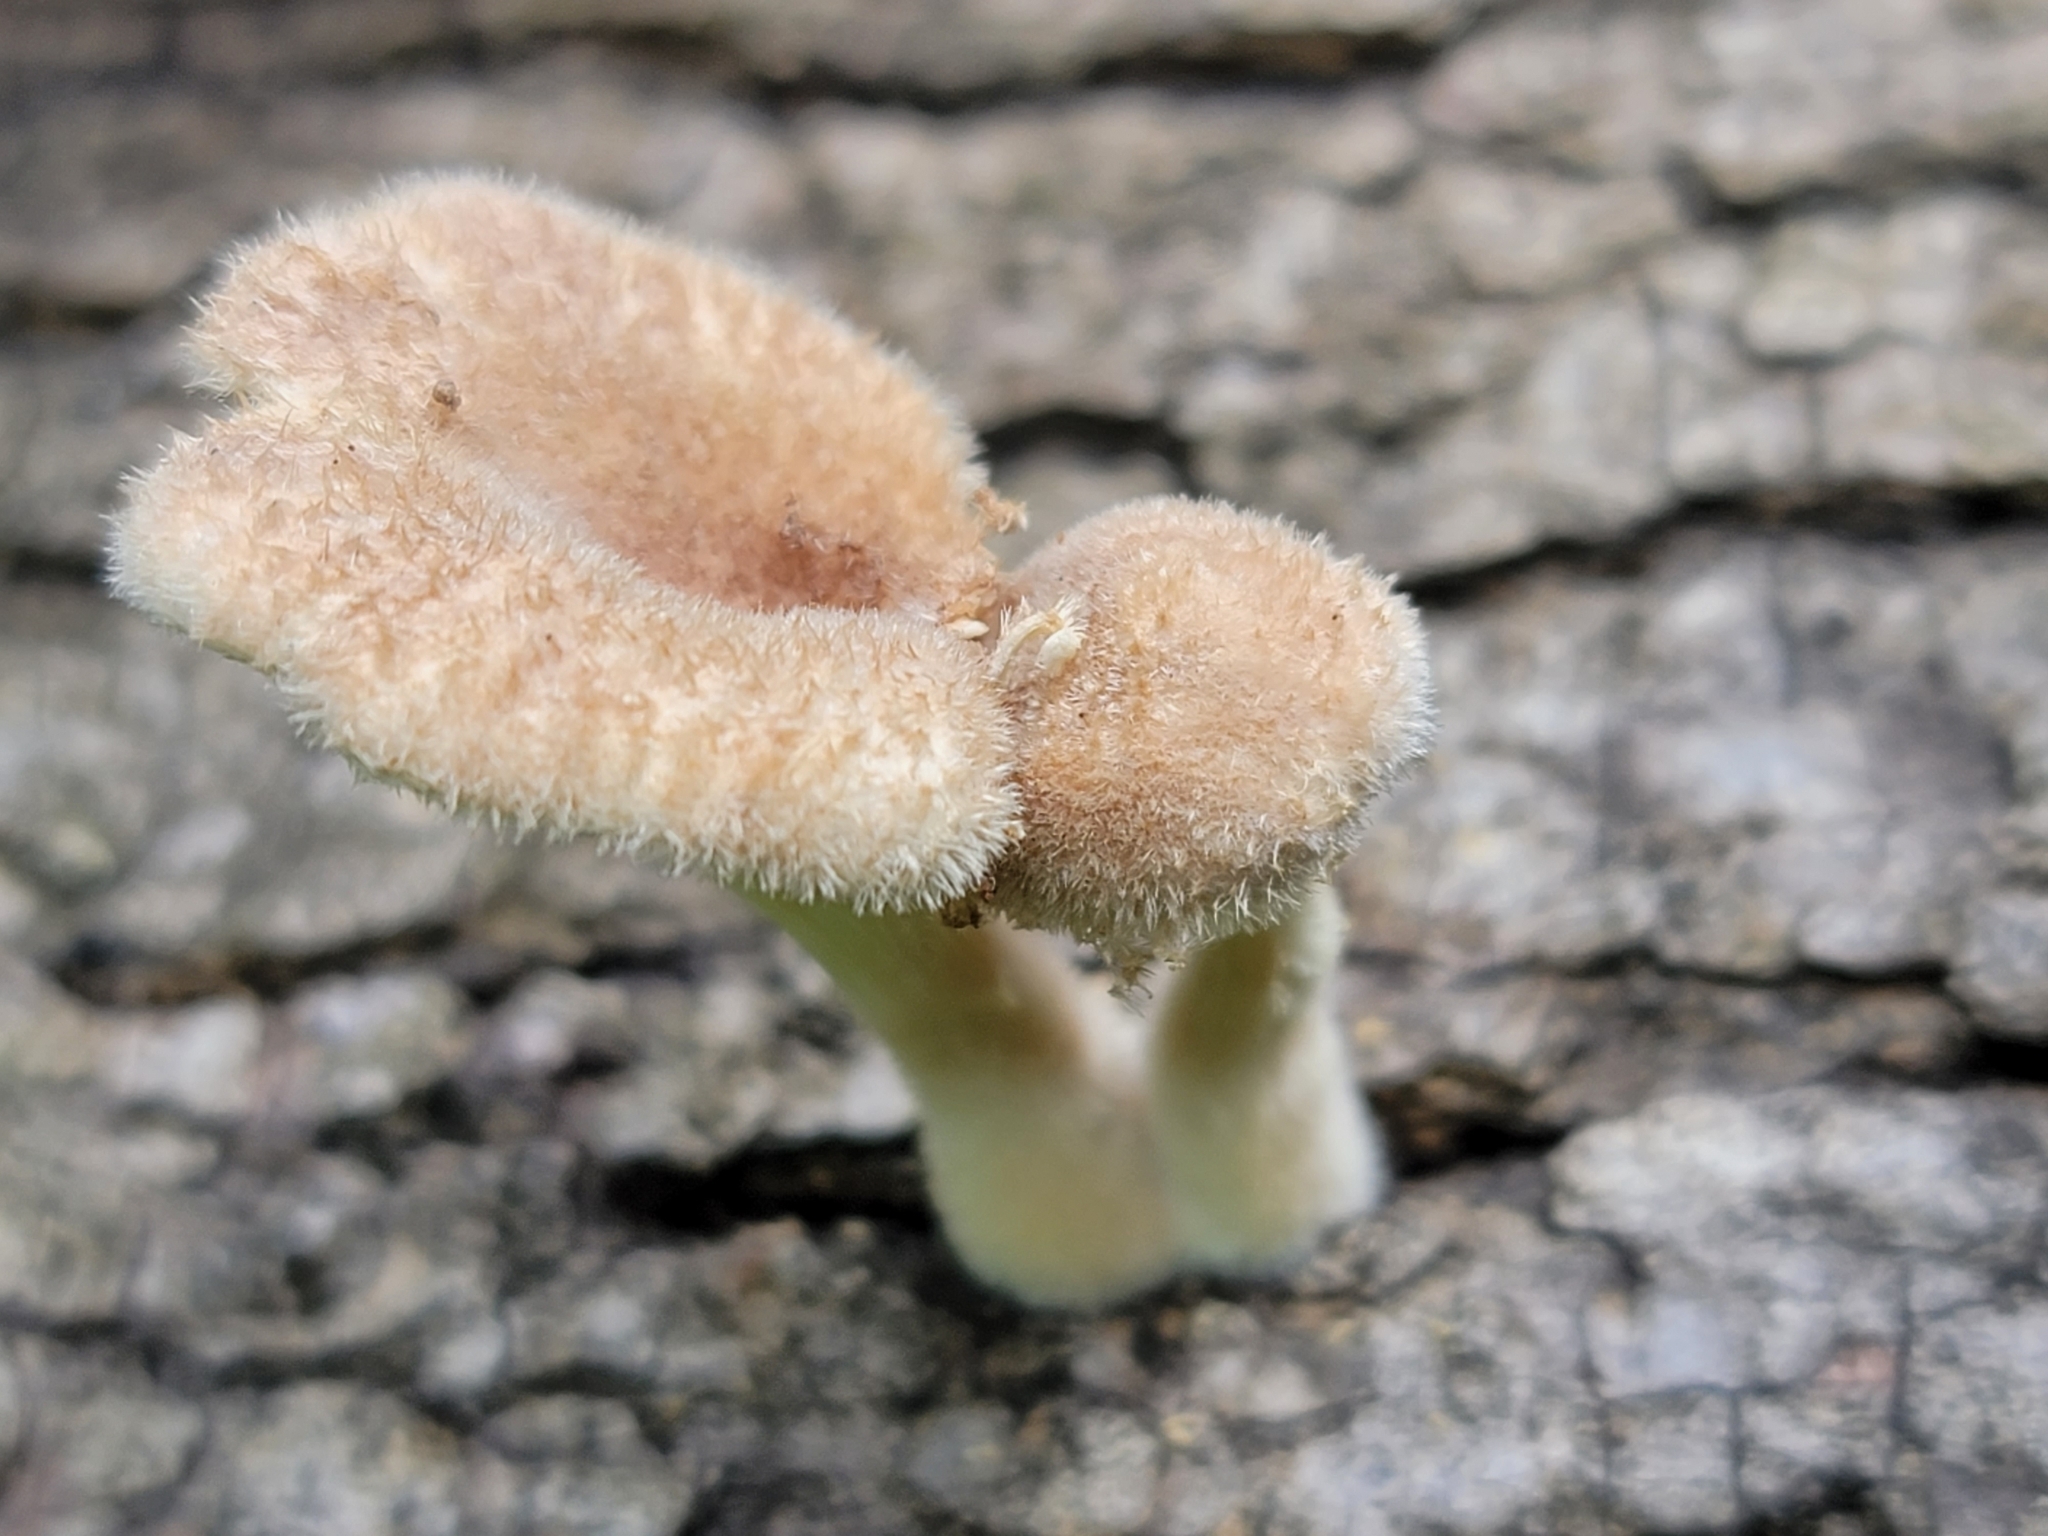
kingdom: Fungi
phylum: Basidiomycota
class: Agaricomycetes
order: Polyporales
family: Panaceae
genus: Panus
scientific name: Panus neostrigosus
